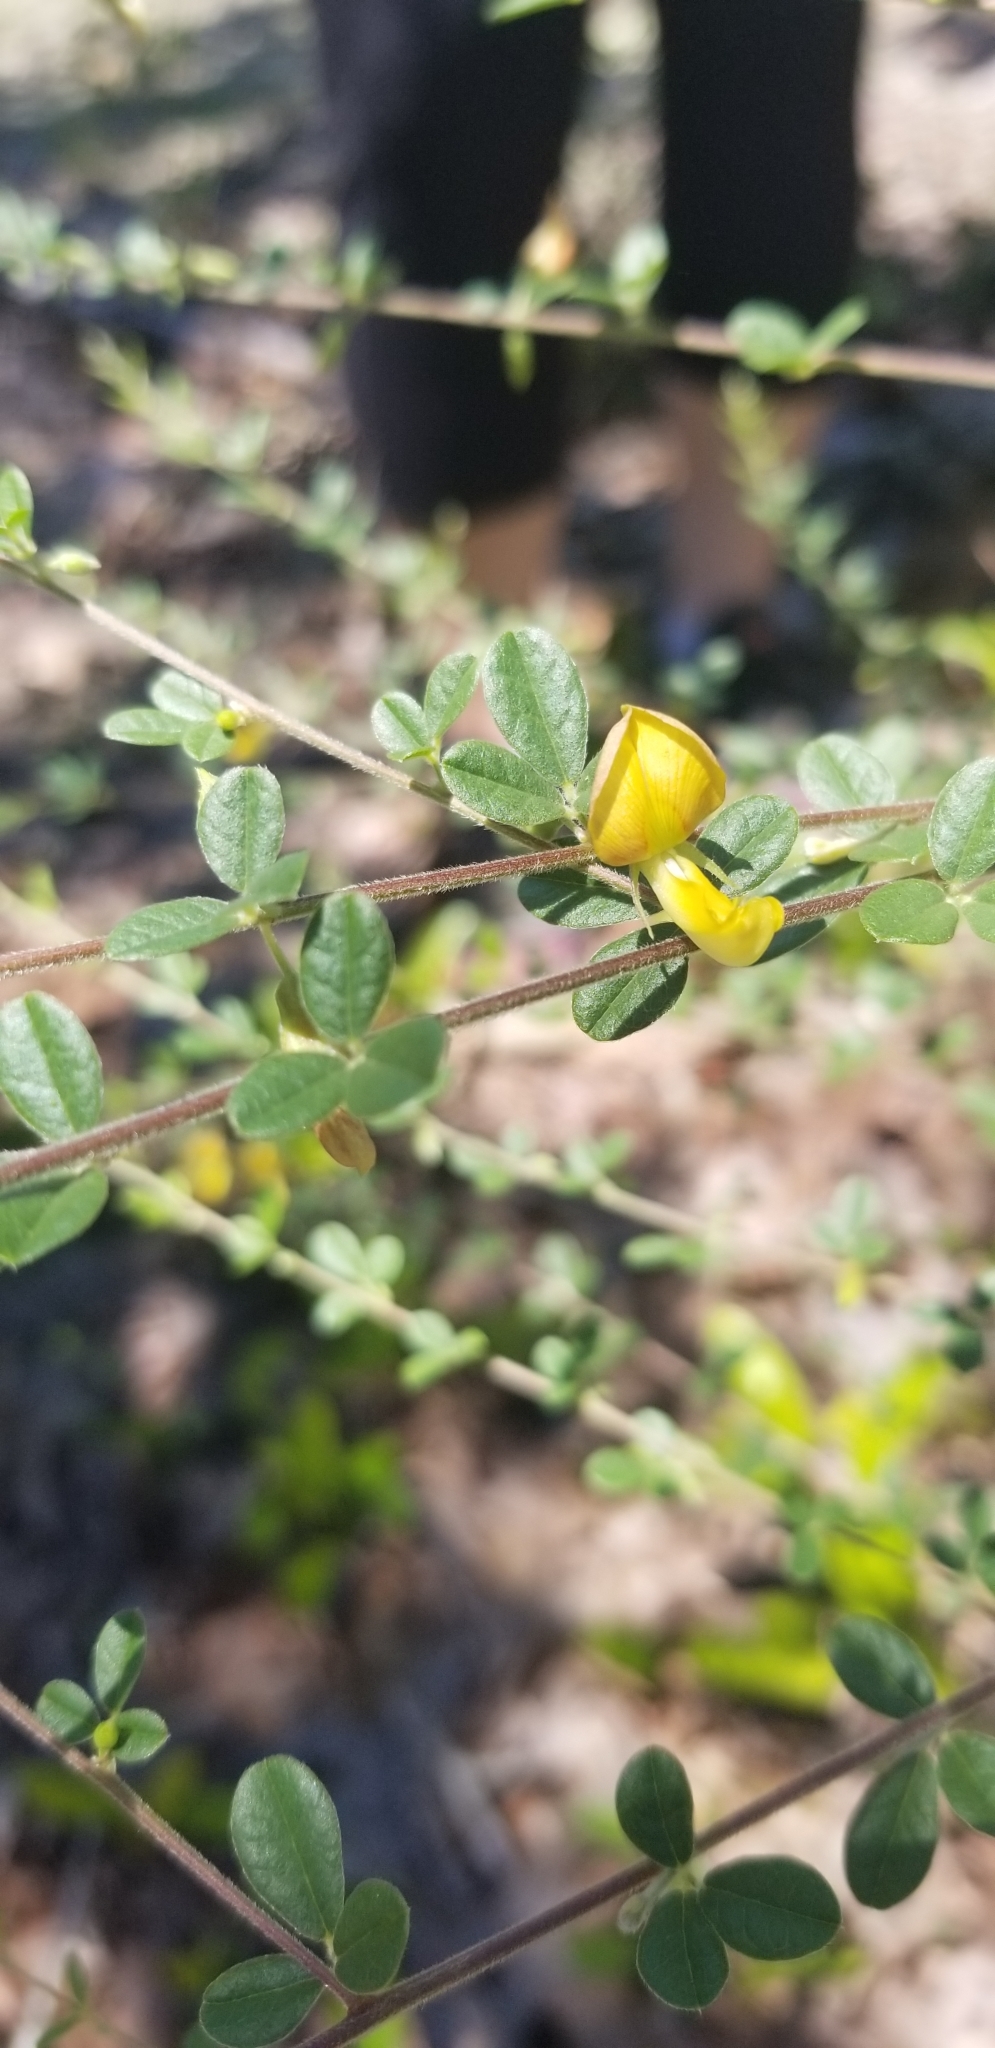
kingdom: Plantae
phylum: Tracheophyta
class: Magnoliopsida
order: Fabales
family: Fabaceae
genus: Rhynchosia
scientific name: Rhynchosia cytisoides
